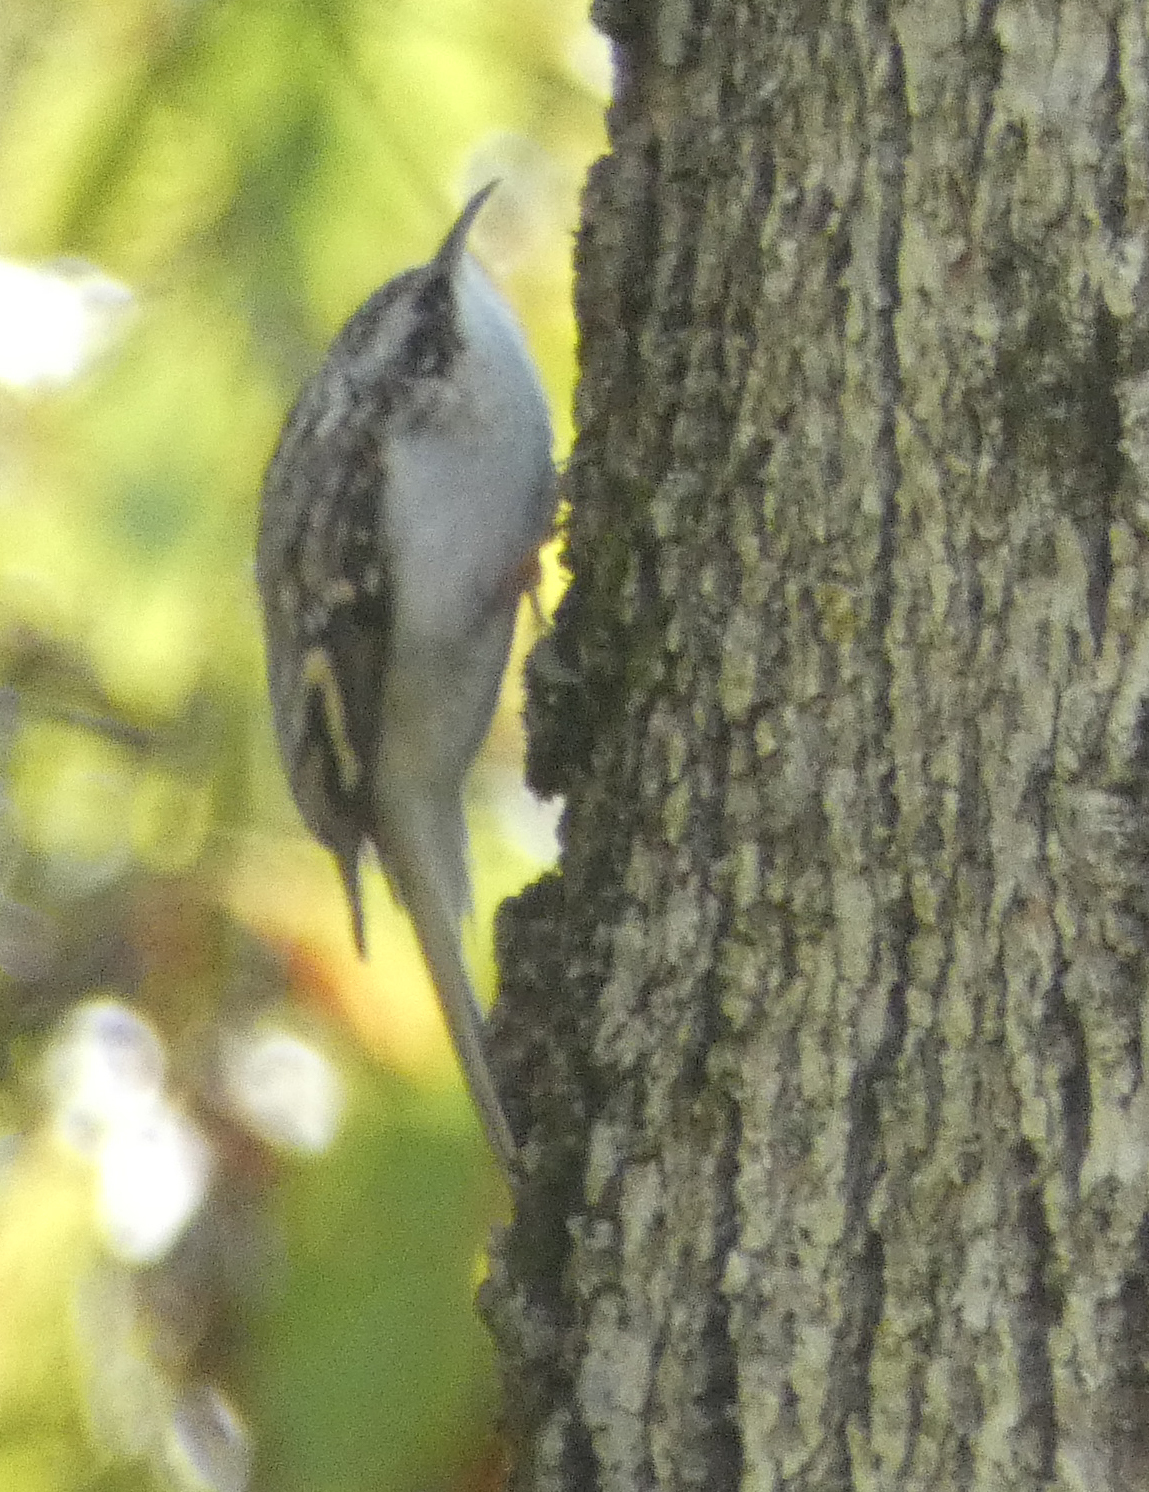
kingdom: Animalia
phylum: Chordata
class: Aves
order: Passeriformes
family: Certhiidae
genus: Certhia
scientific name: Certhia americana
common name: Brown creeper
